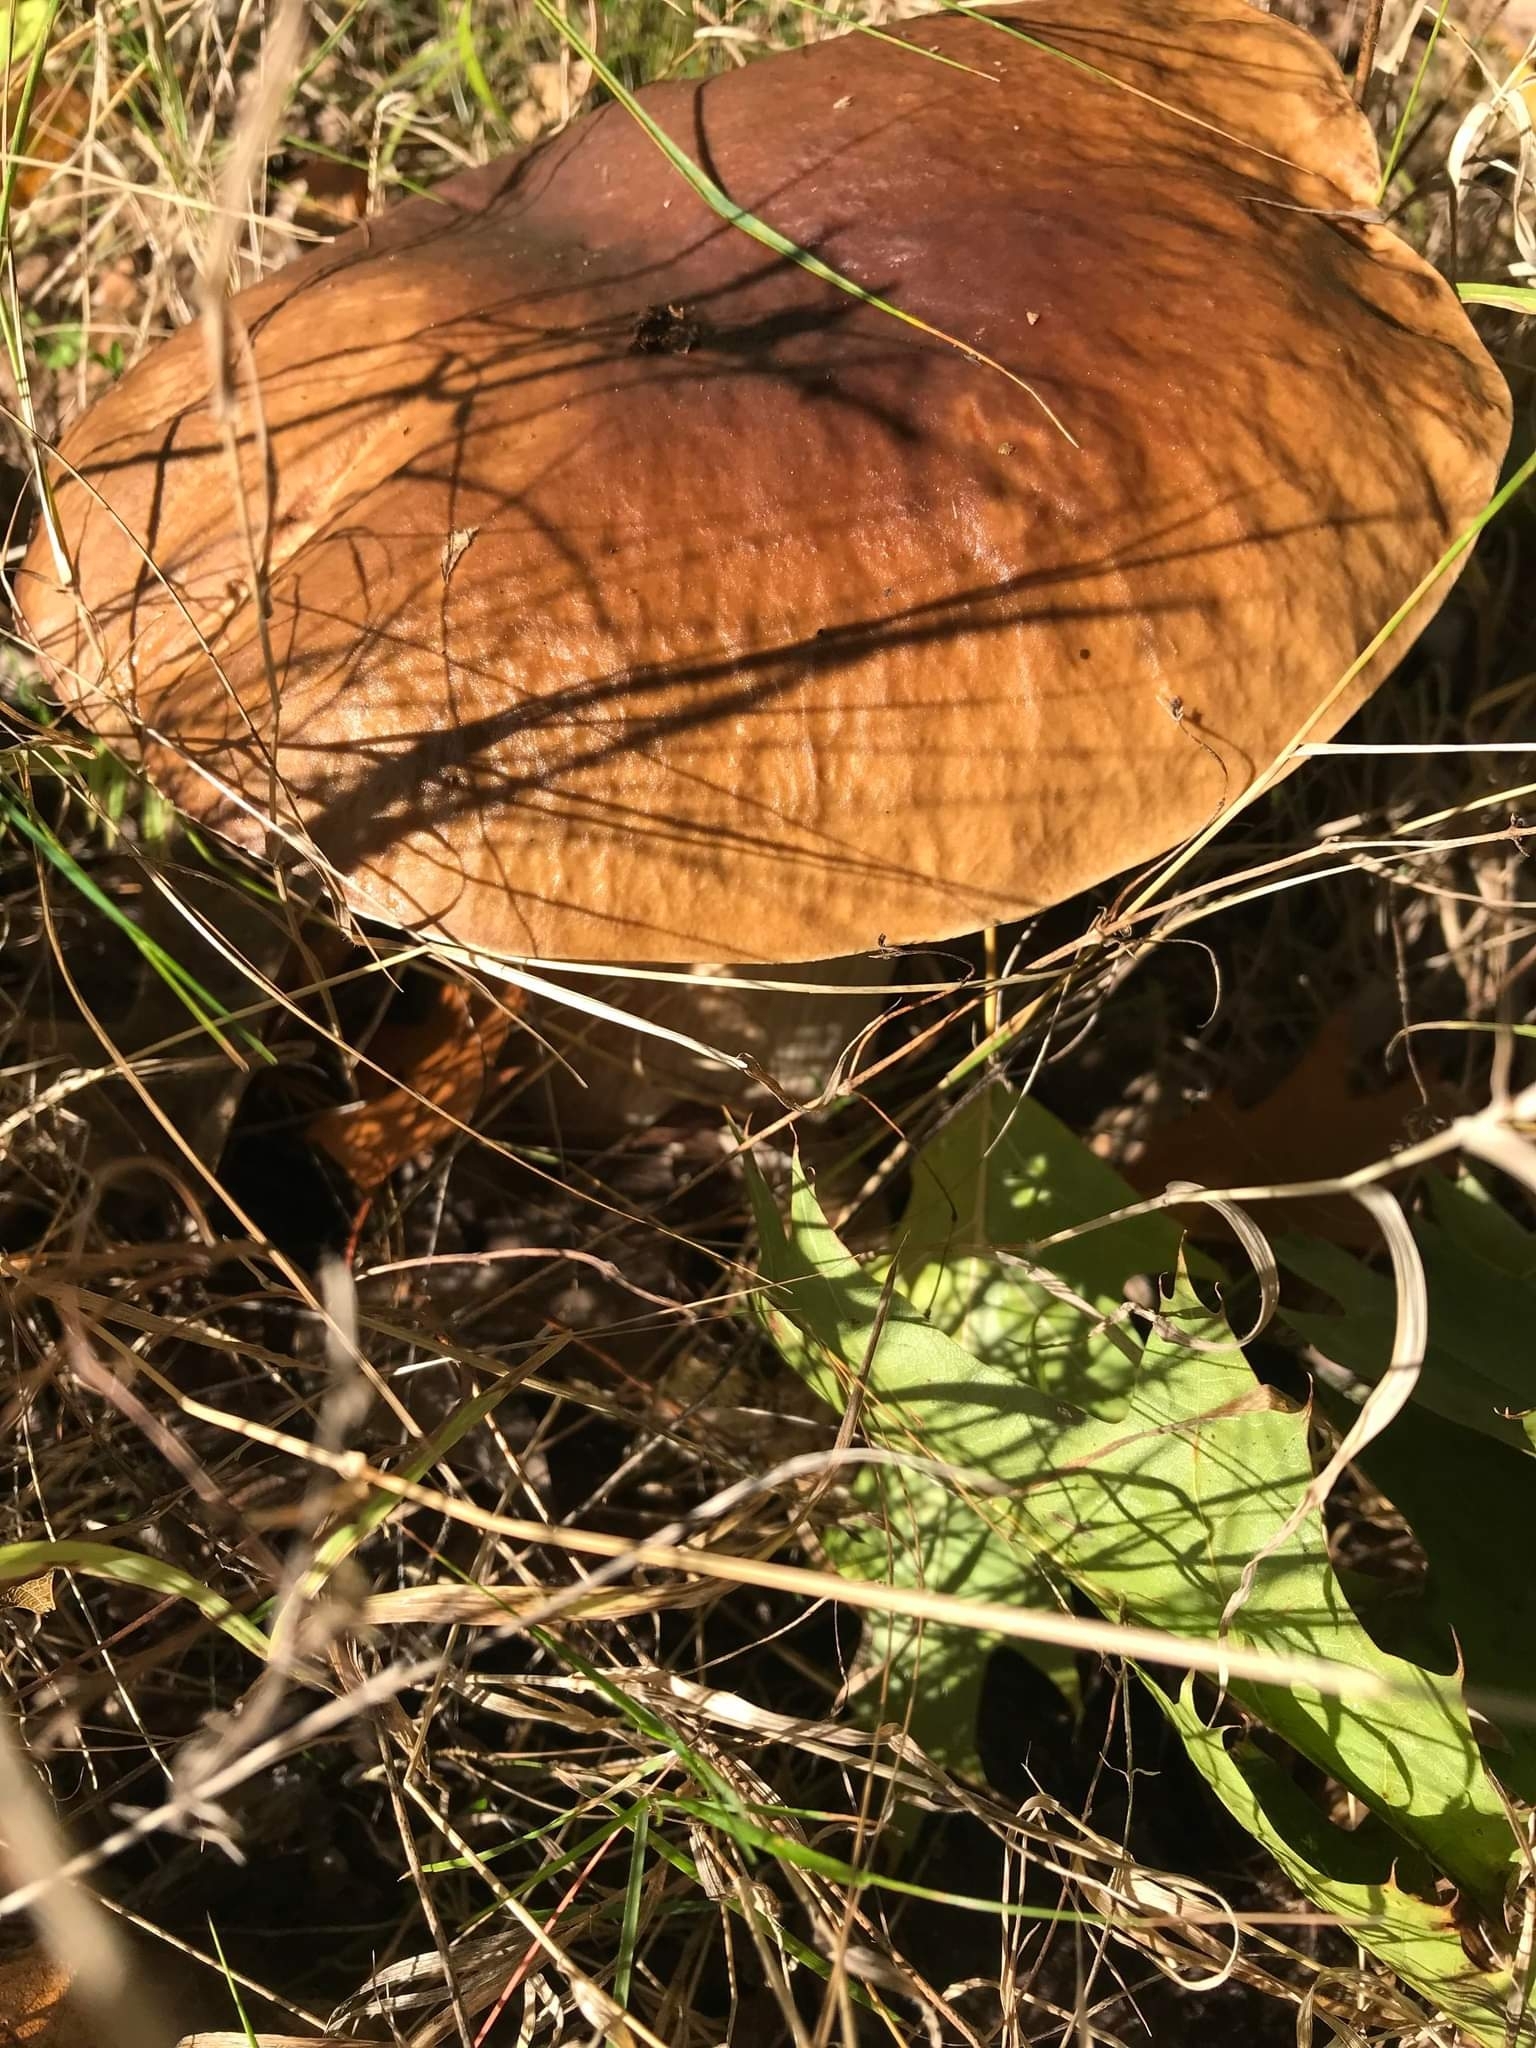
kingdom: Fungi
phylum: Basidiomycota
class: Agaricomycetes
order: Boletales
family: Boletaceae
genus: Boletus
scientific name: Boletus edulis
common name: Cep
